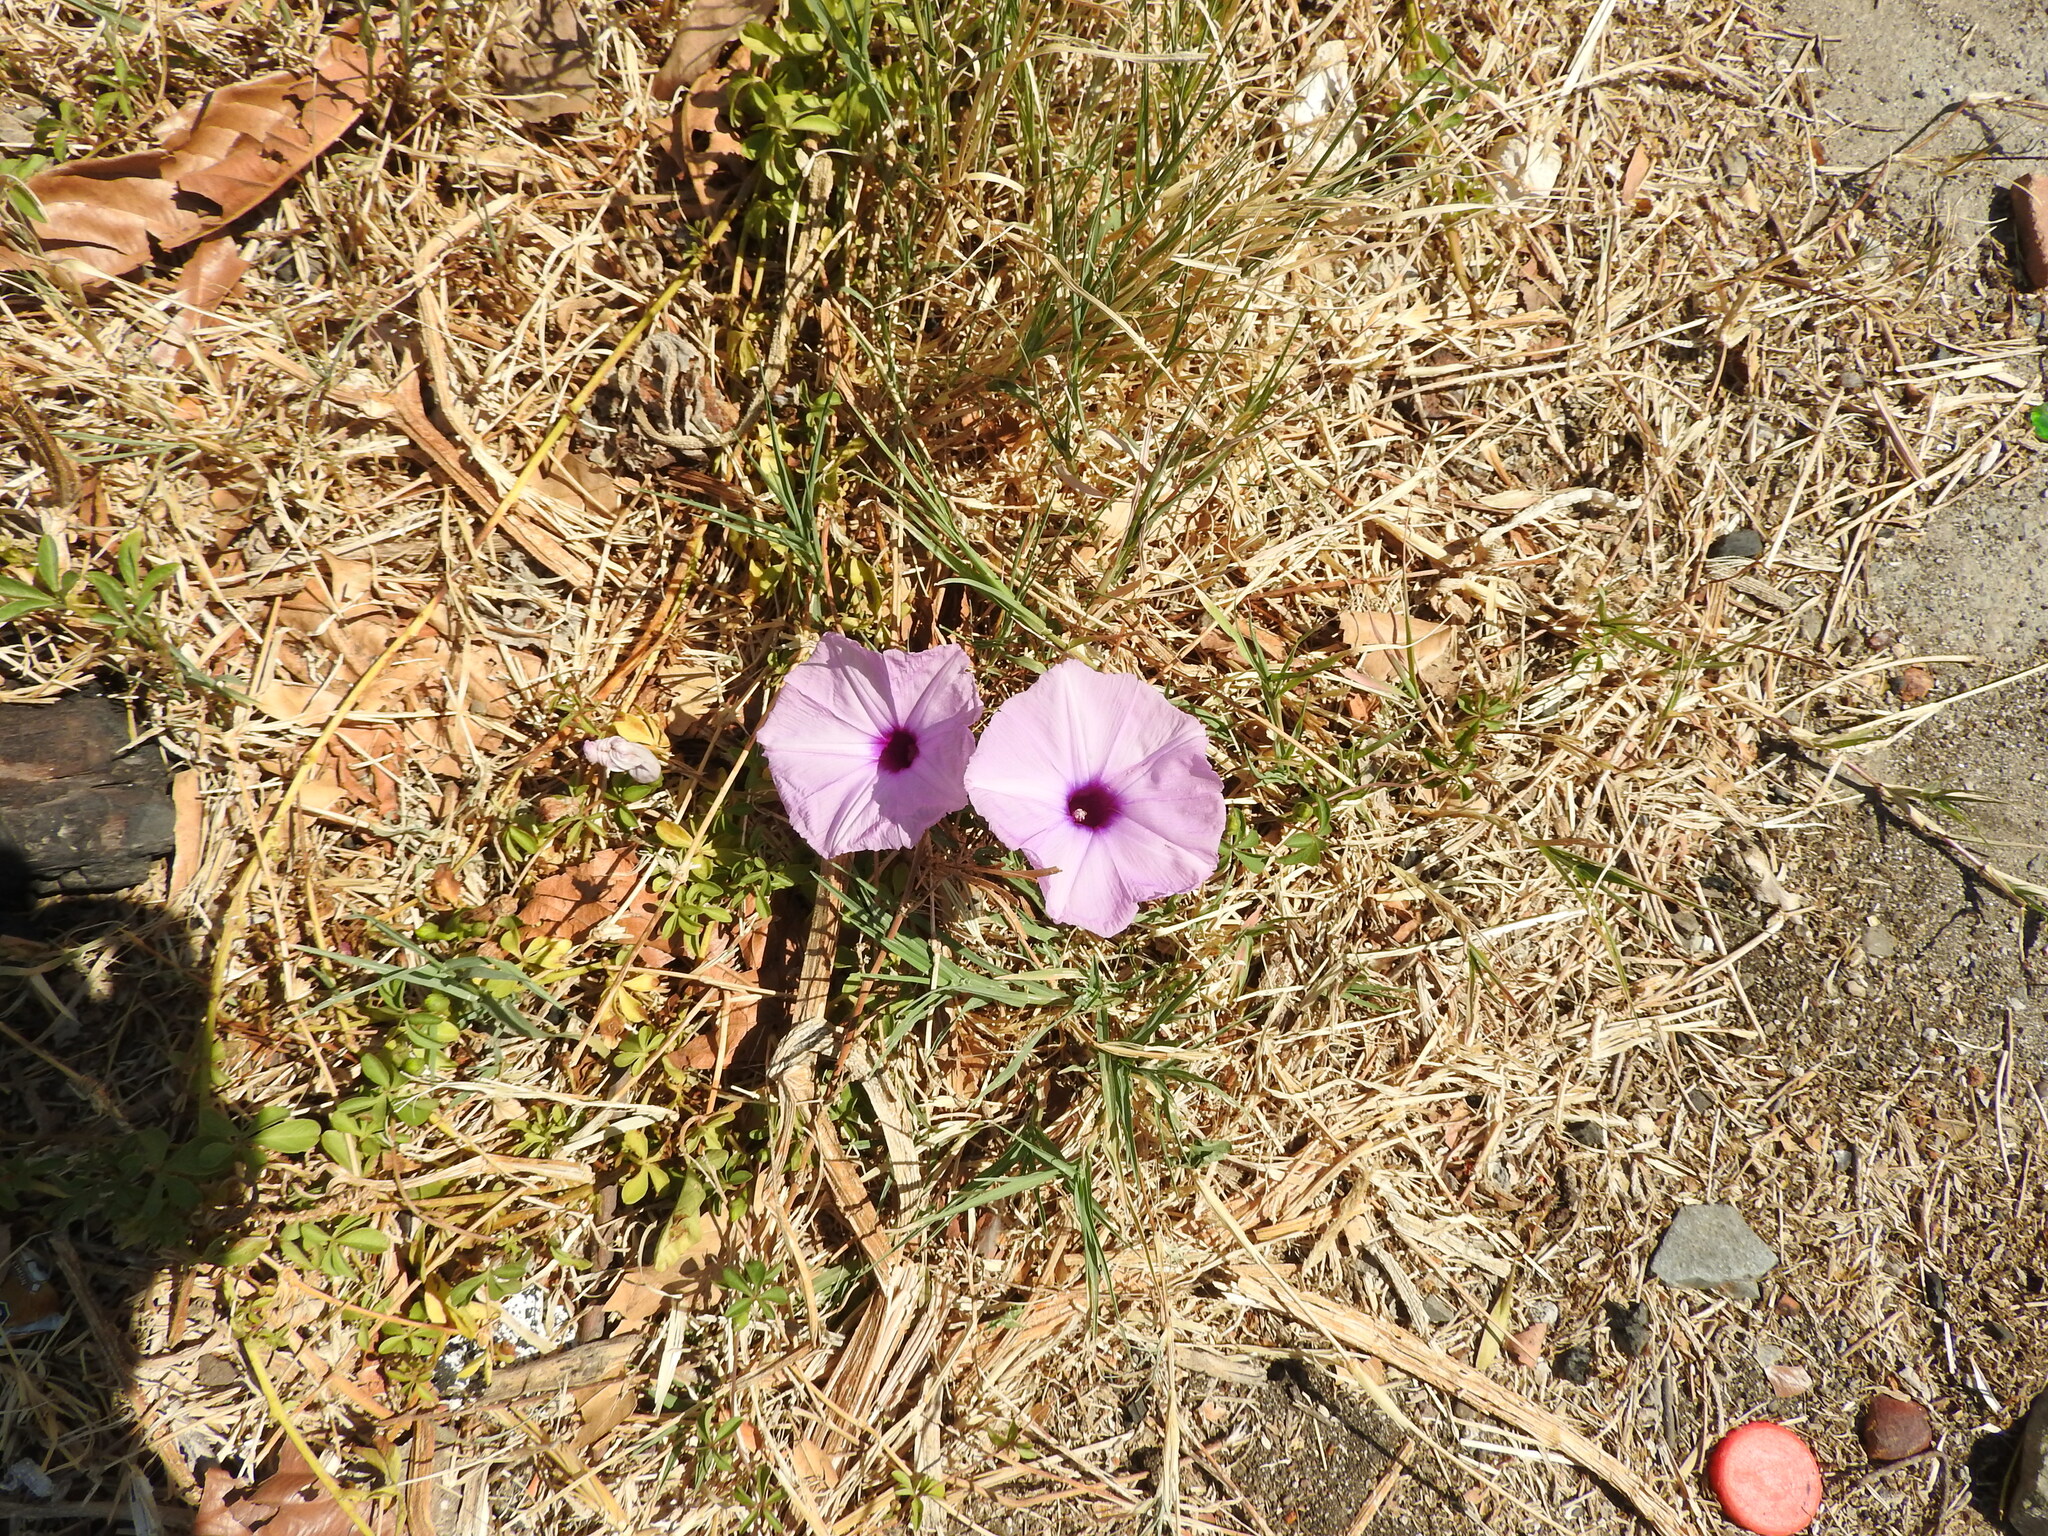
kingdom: Plantae
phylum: Tracheophyta
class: Magnoliopsida
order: Solanales
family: Convolvulaceae
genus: Ipomoea
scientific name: Ipomoea cairica
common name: Mile a minute vine
